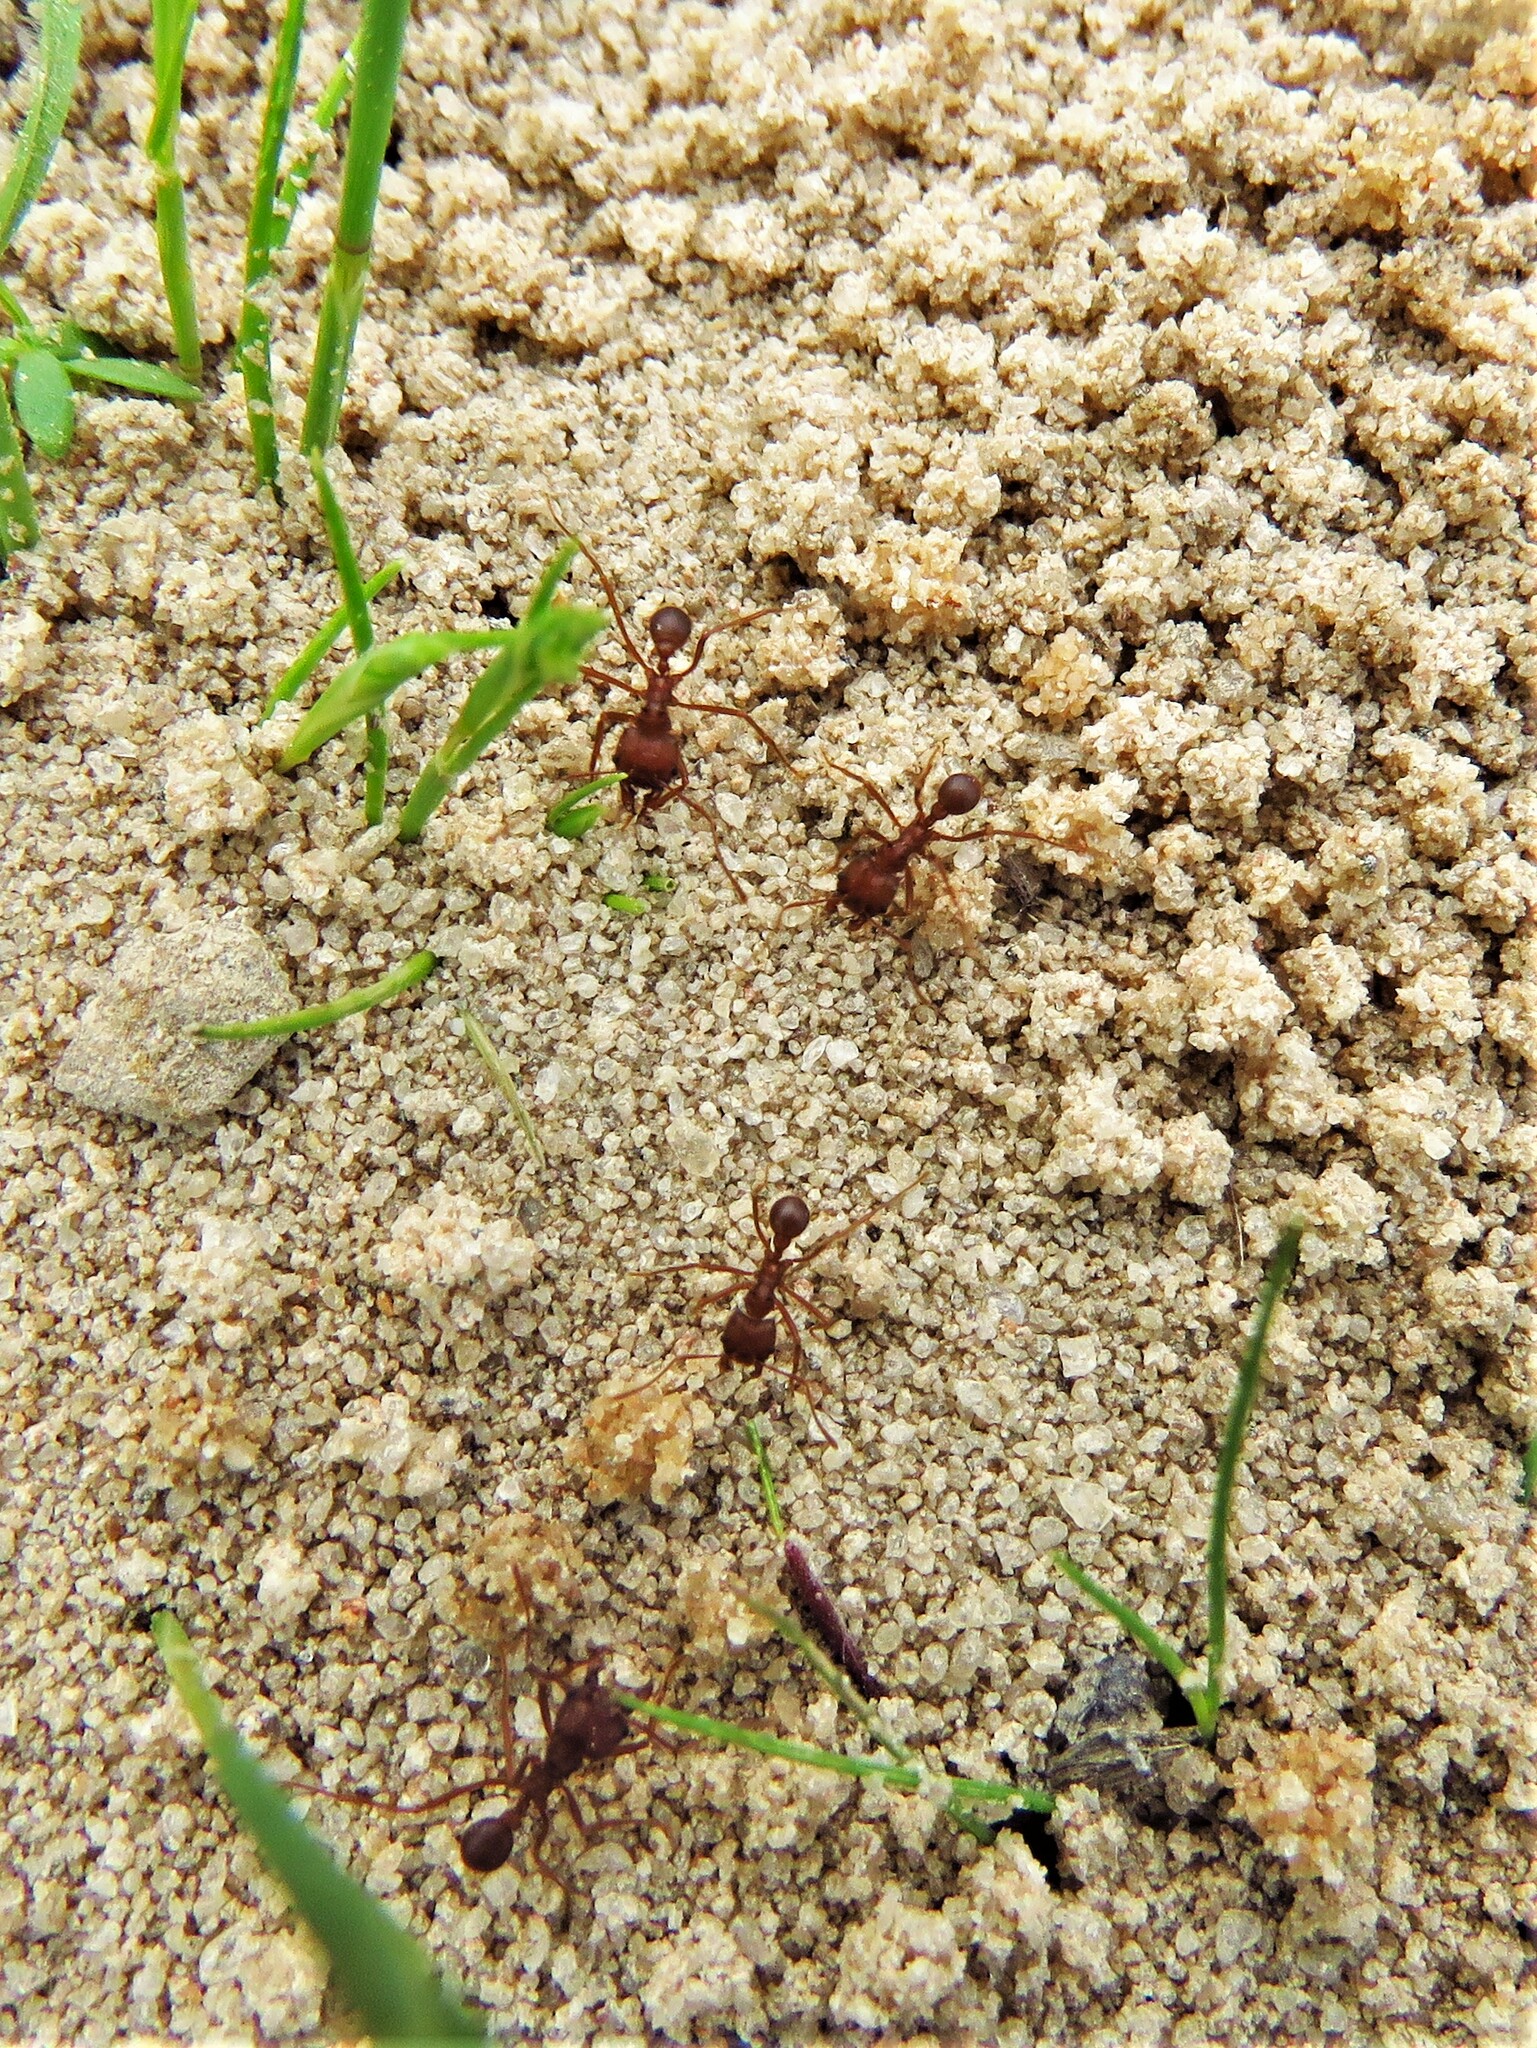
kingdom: Animalia
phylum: Arthropoda
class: Insecta
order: Hymenoptera
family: Formicidae
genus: Atta
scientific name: Atta texana
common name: Texas leafcutting ant
